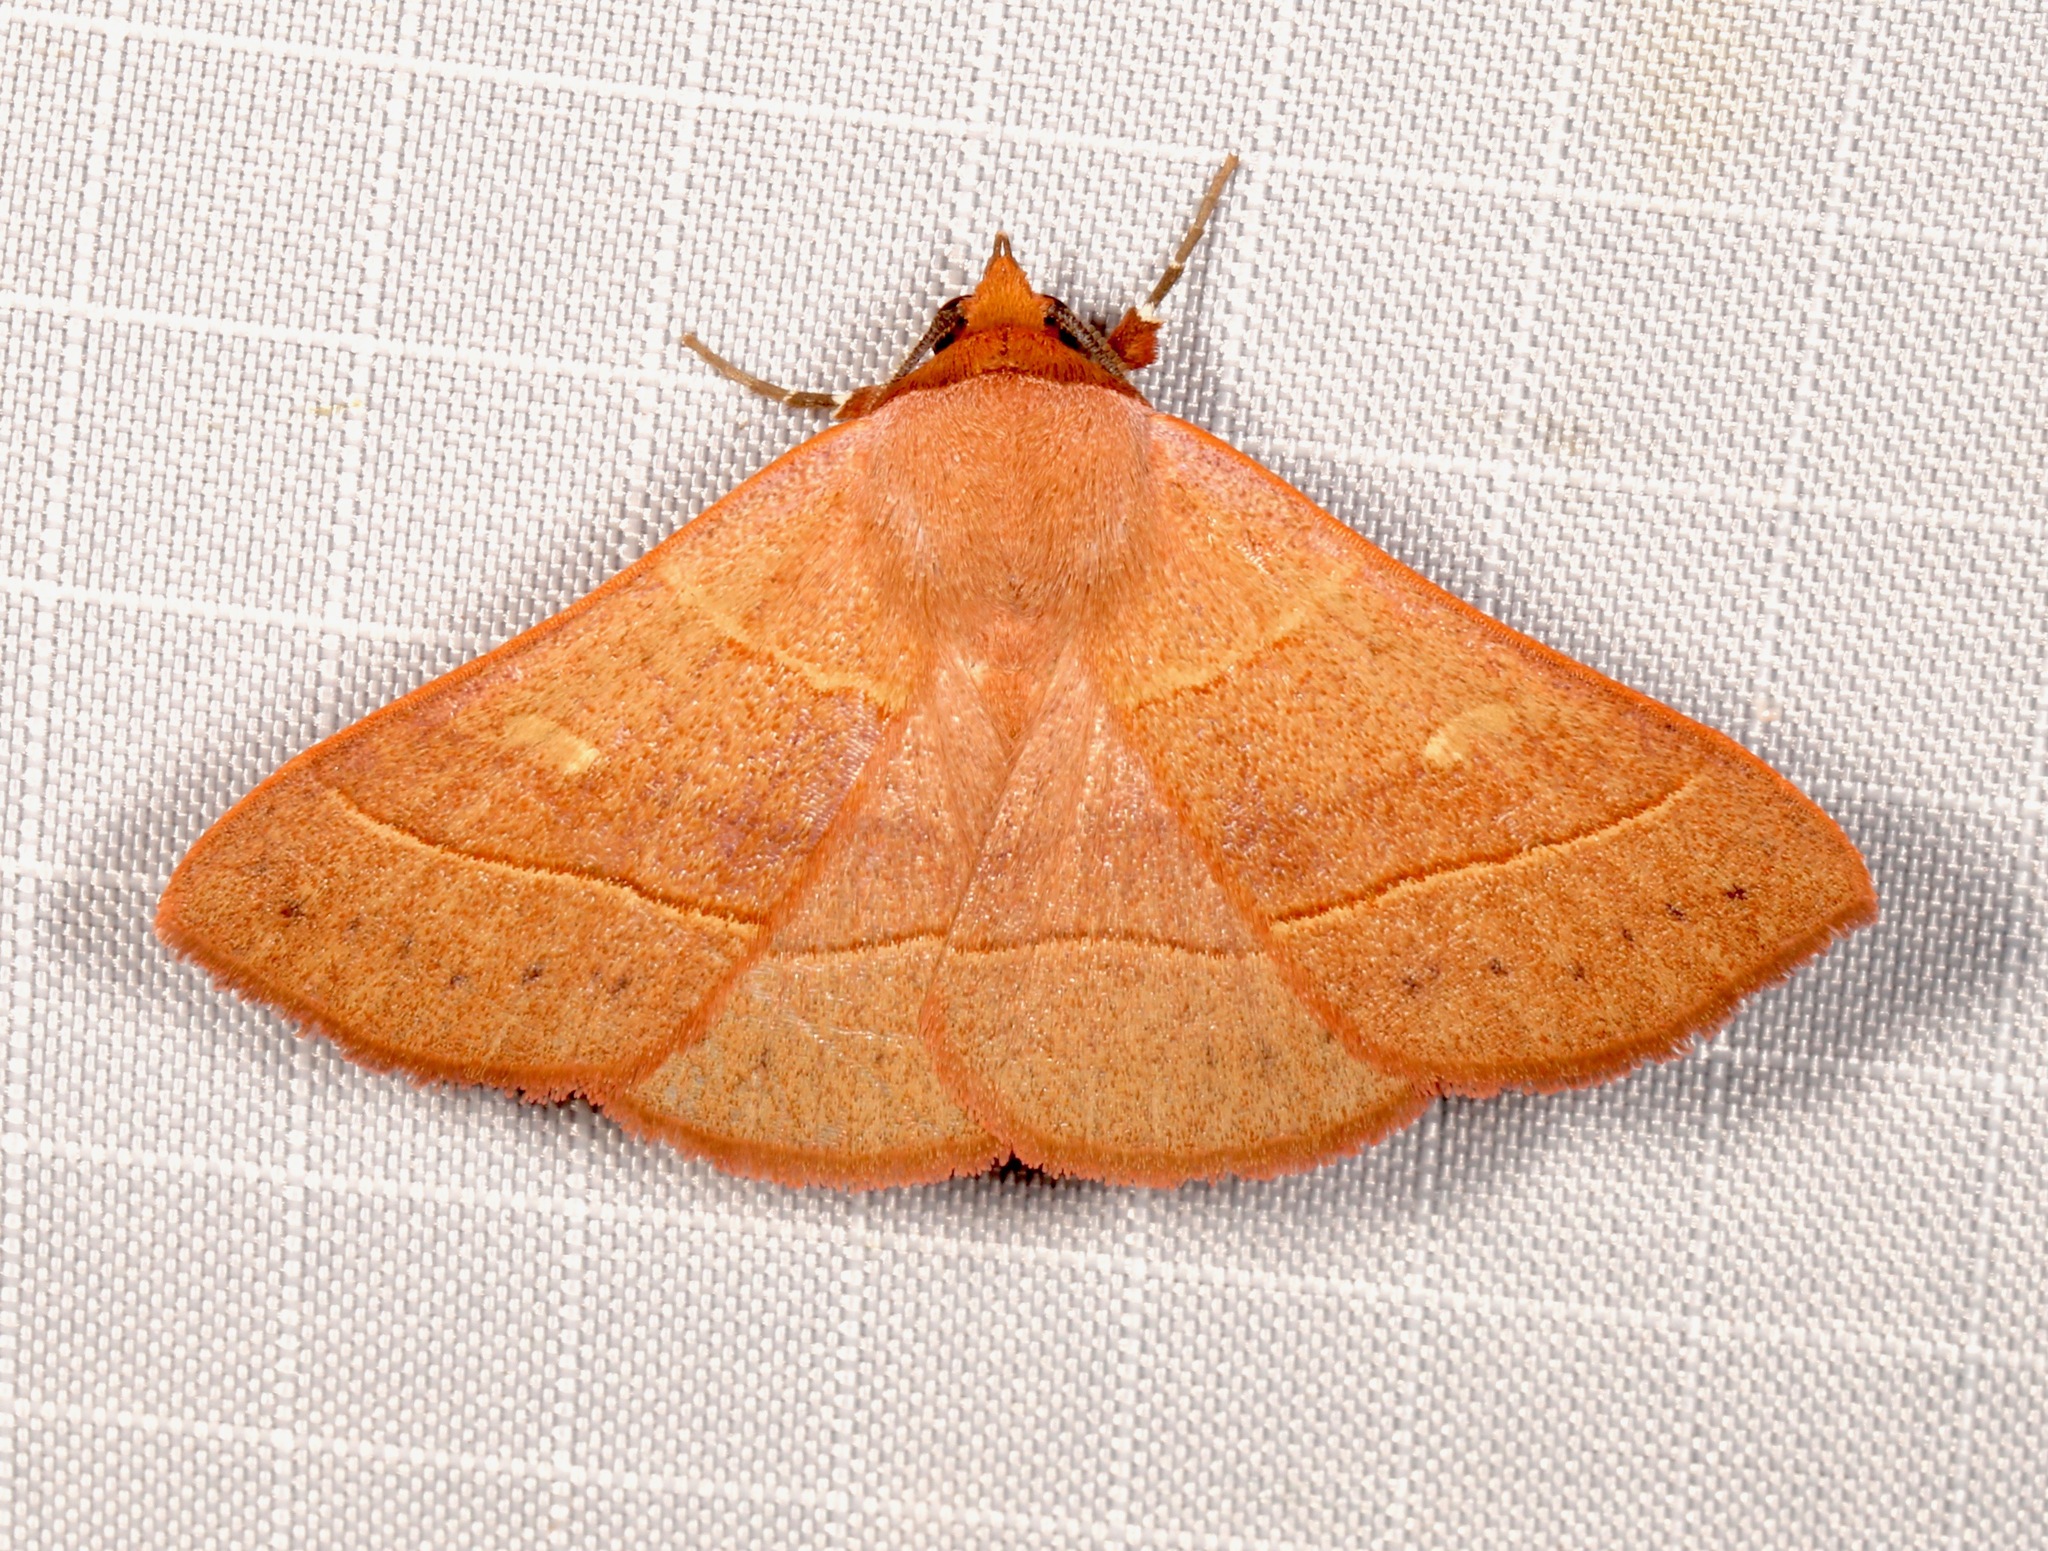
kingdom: Animalia
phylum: Arthropoda
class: Insecta
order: Lepidoptera
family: Erebidae
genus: Panopoda
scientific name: Panopoda rufimargo
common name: Red-lined panopoda moth
